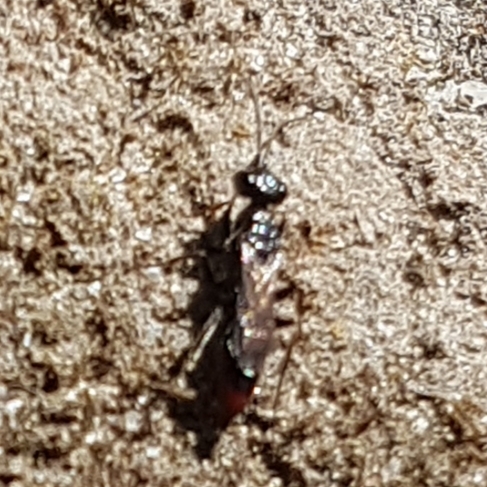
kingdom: Animalia
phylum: Arthropoda
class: Insecta
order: Hymenoptera
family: Ampulicidae
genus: Dolichurus
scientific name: Dolichurus haemorrhous
